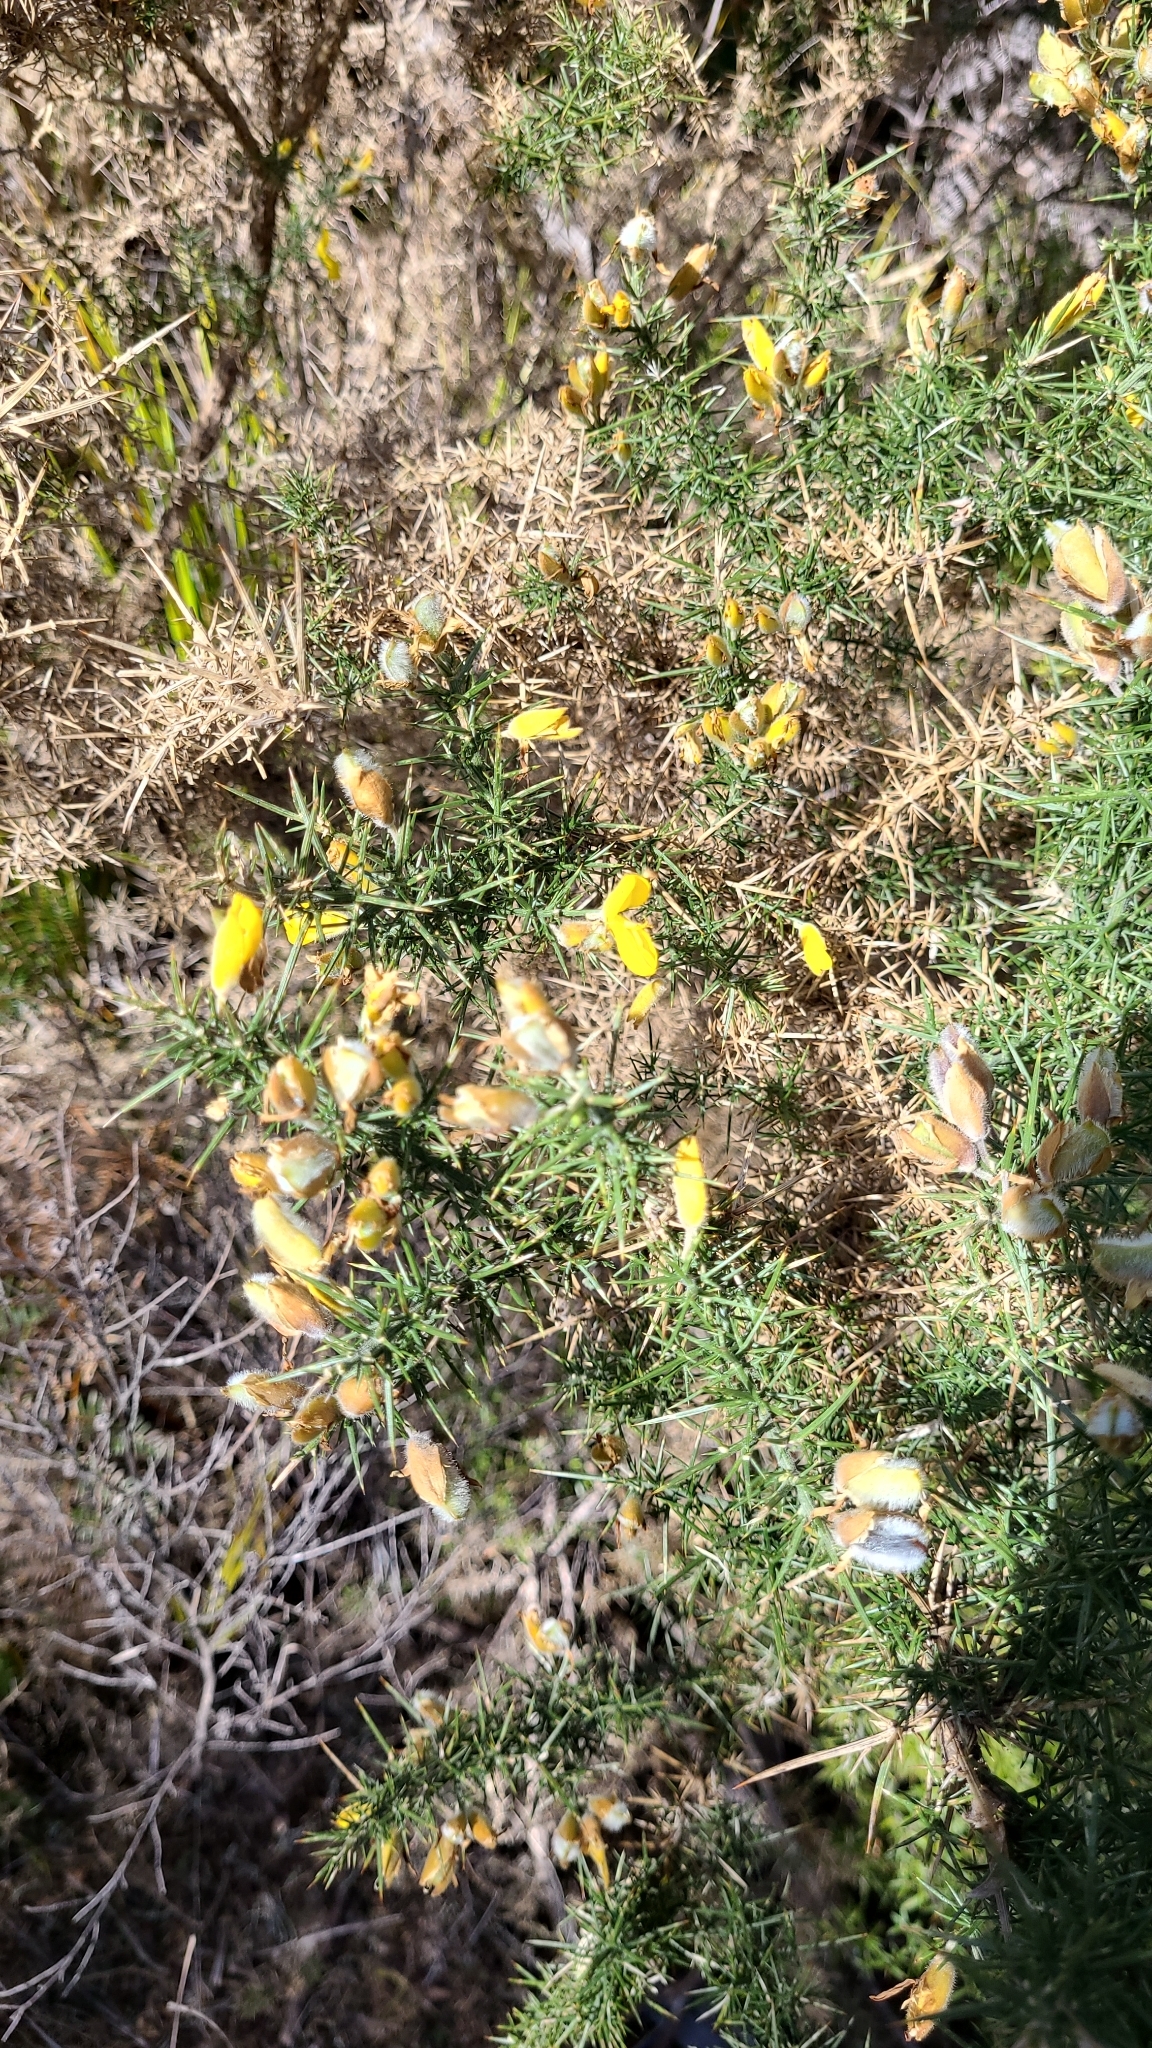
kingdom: Plantae
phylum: Tracheophyta
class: Magnoliopsida
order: Fabales
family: Fabaceae
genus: Ulex
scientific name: Ulex europaeus
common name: Common gorse
